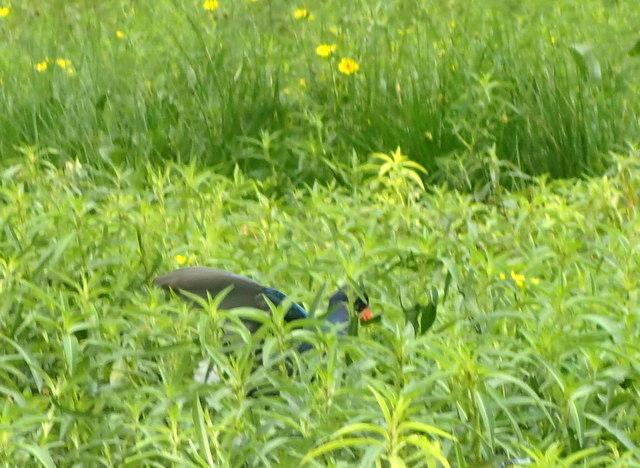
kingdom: Animalia
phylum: Chordata
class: Aves
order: Gruiformes
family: Rallidae
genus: Porphyrio
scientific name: Porphyrio martinica
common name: Purple gallinule
